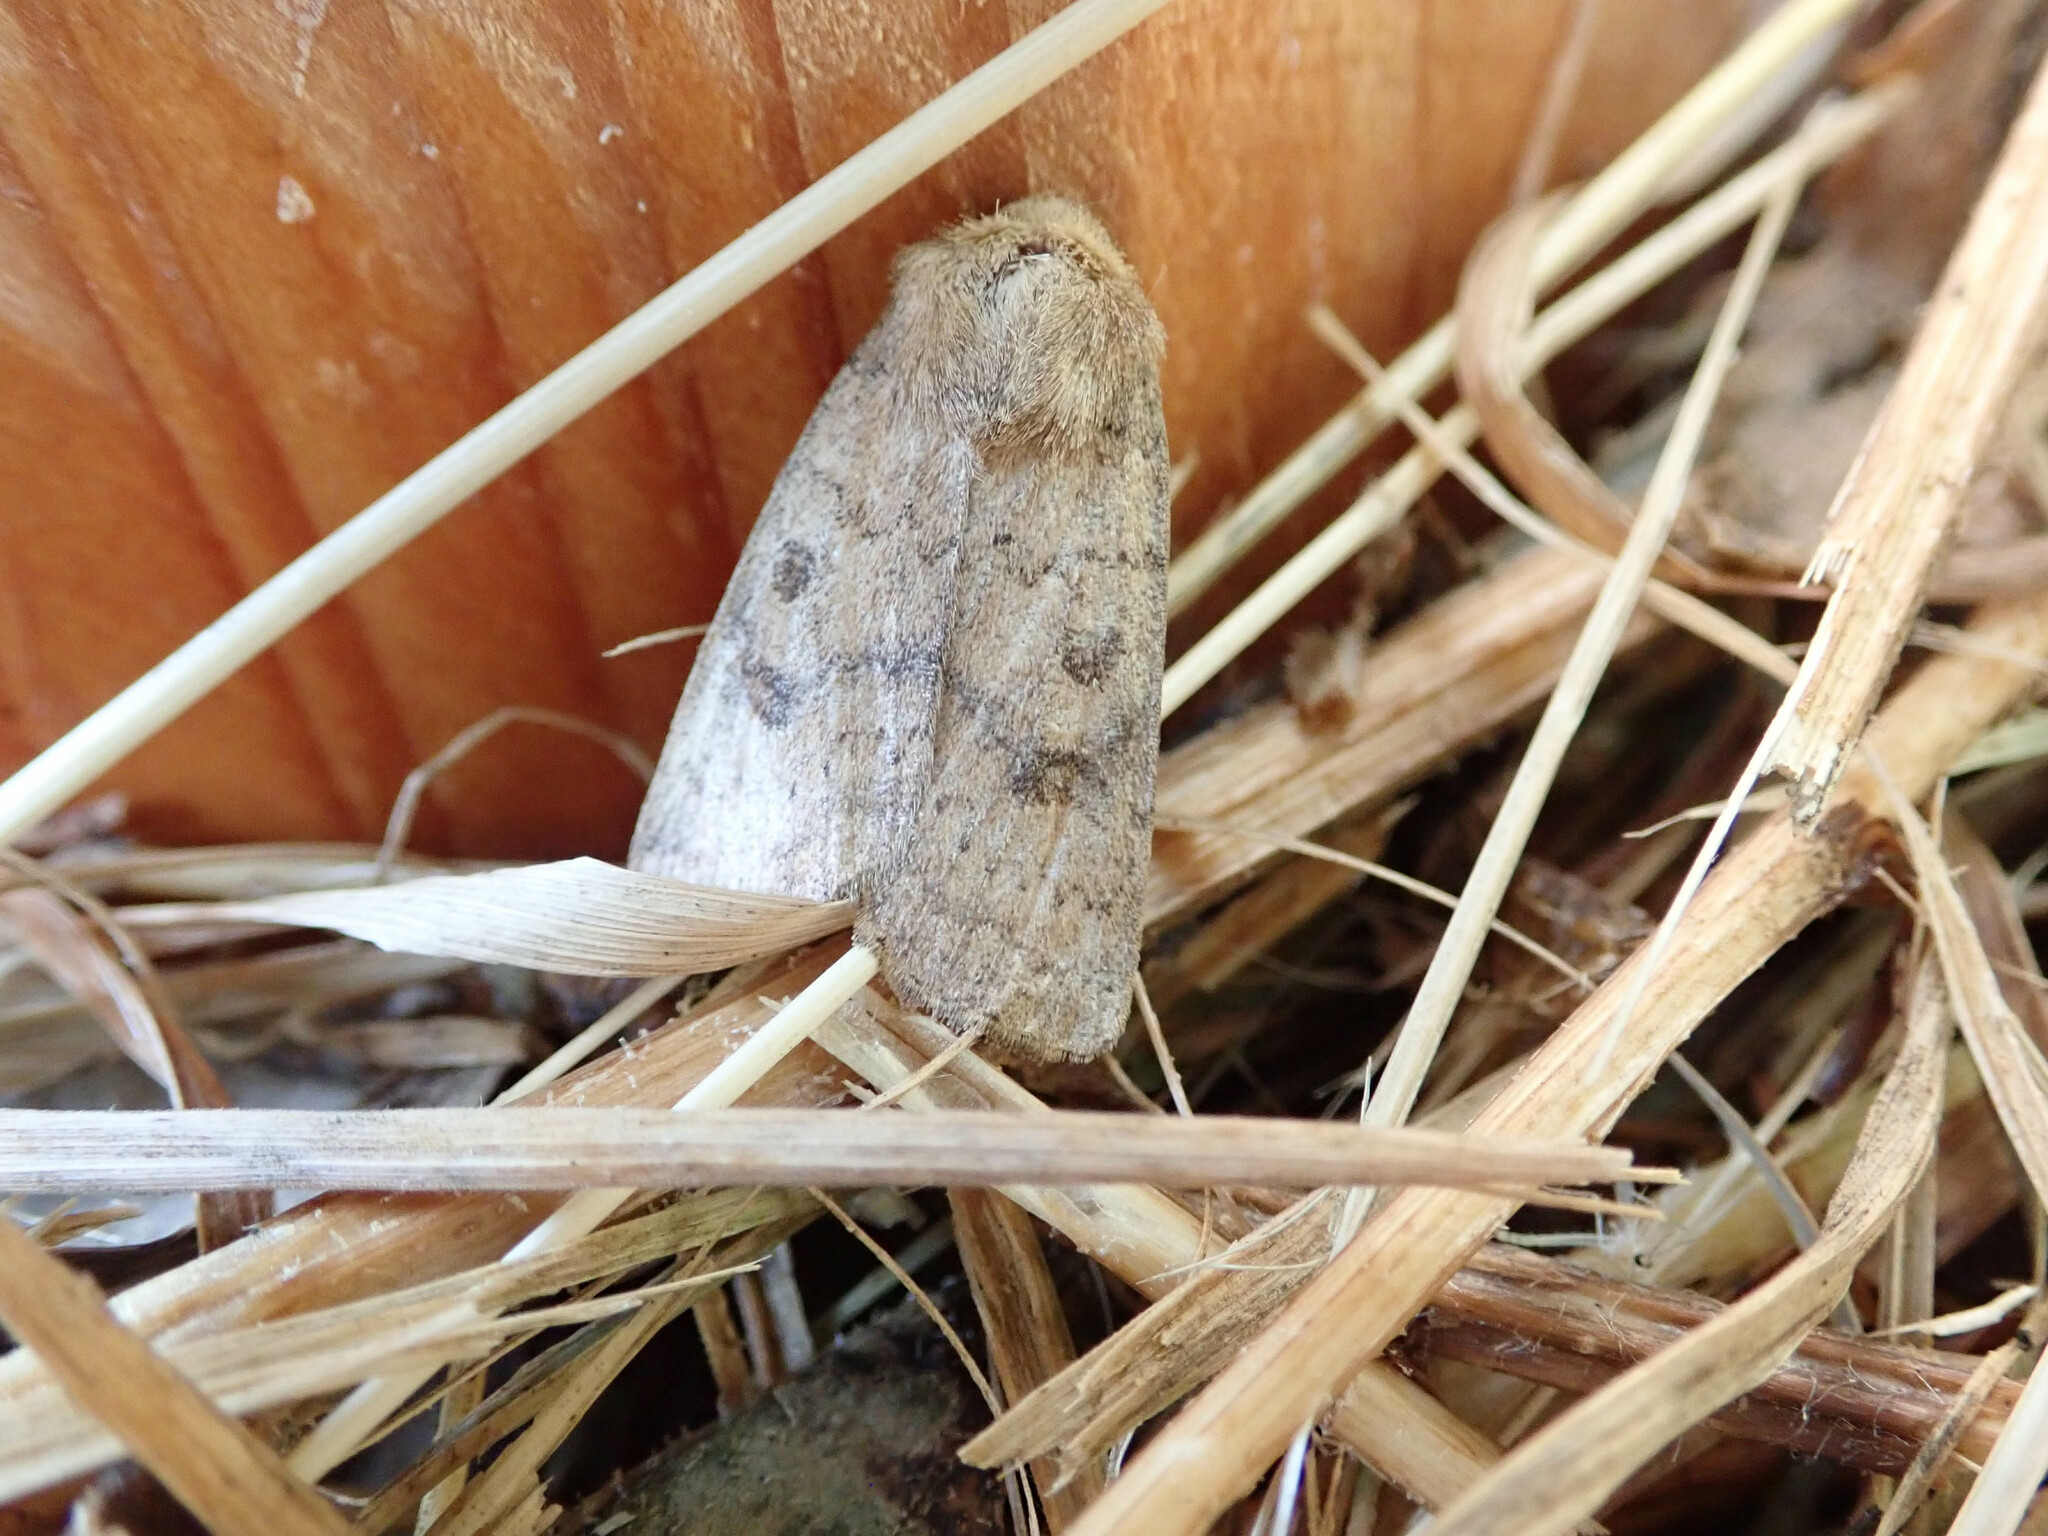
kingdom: Animalia
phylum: Arthropoda
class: Insecta
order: Lepidoptera
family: Noctuidae
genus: Caradrina
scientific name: Caradrina morpheus
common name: Mottled rustic
